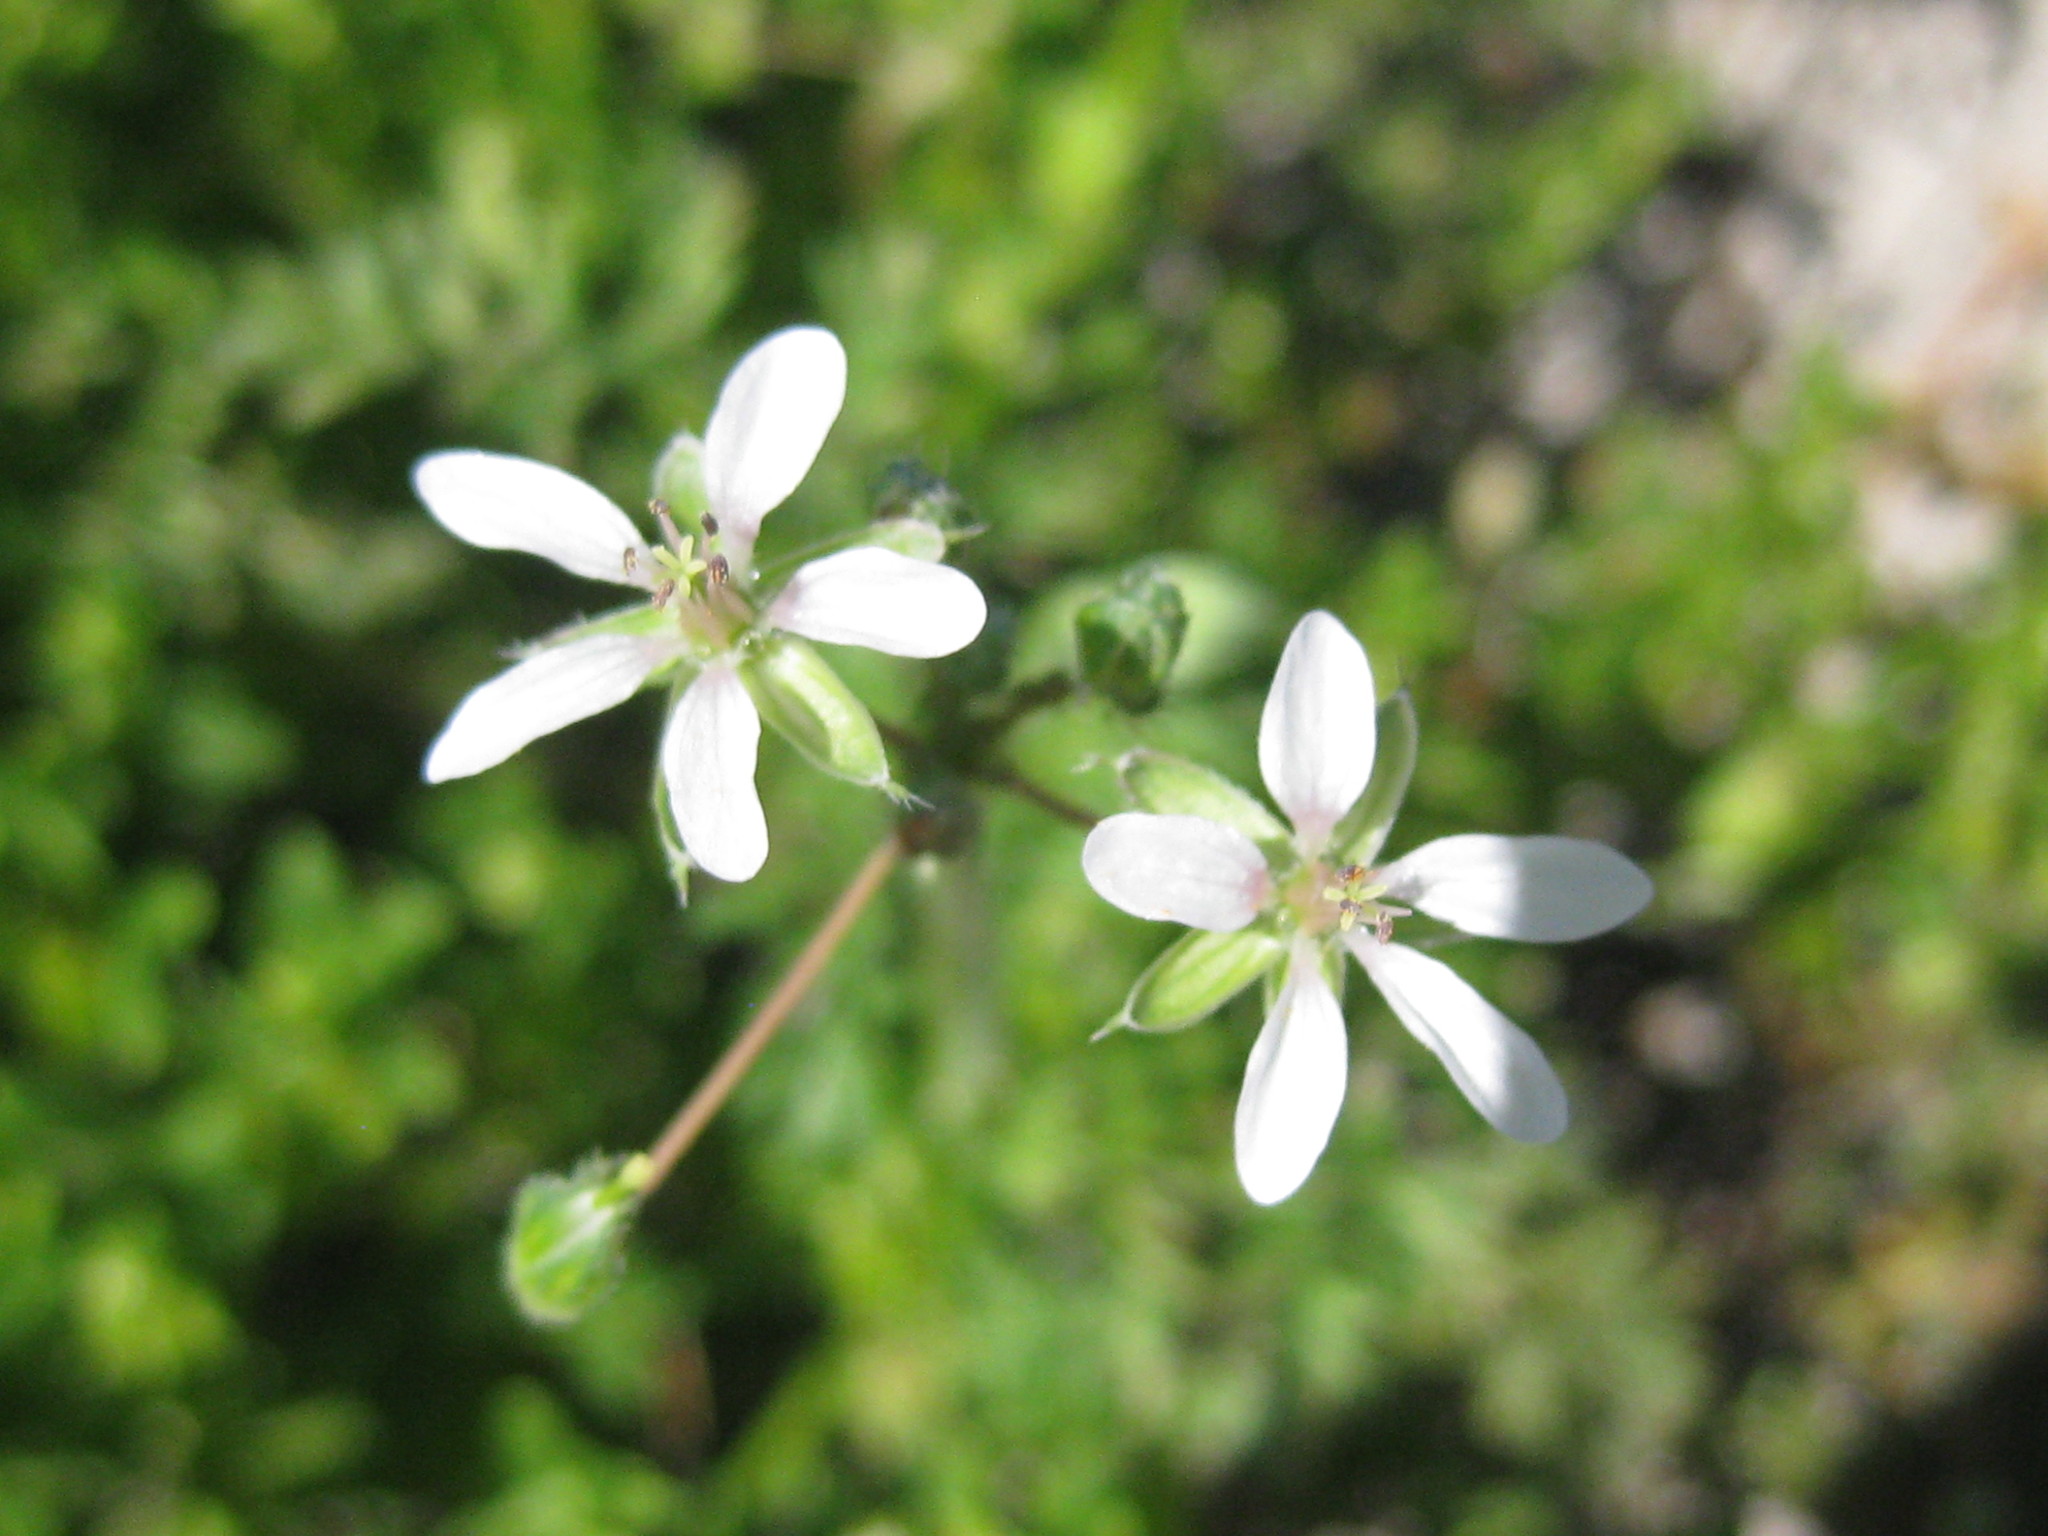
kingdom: Plantae
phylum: Tracheophyta
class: Magnoliopsida
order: Geraniales
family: Geraniaceae
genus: Erodium
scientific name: Erodium moschatum
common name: Musk stork's-bill
